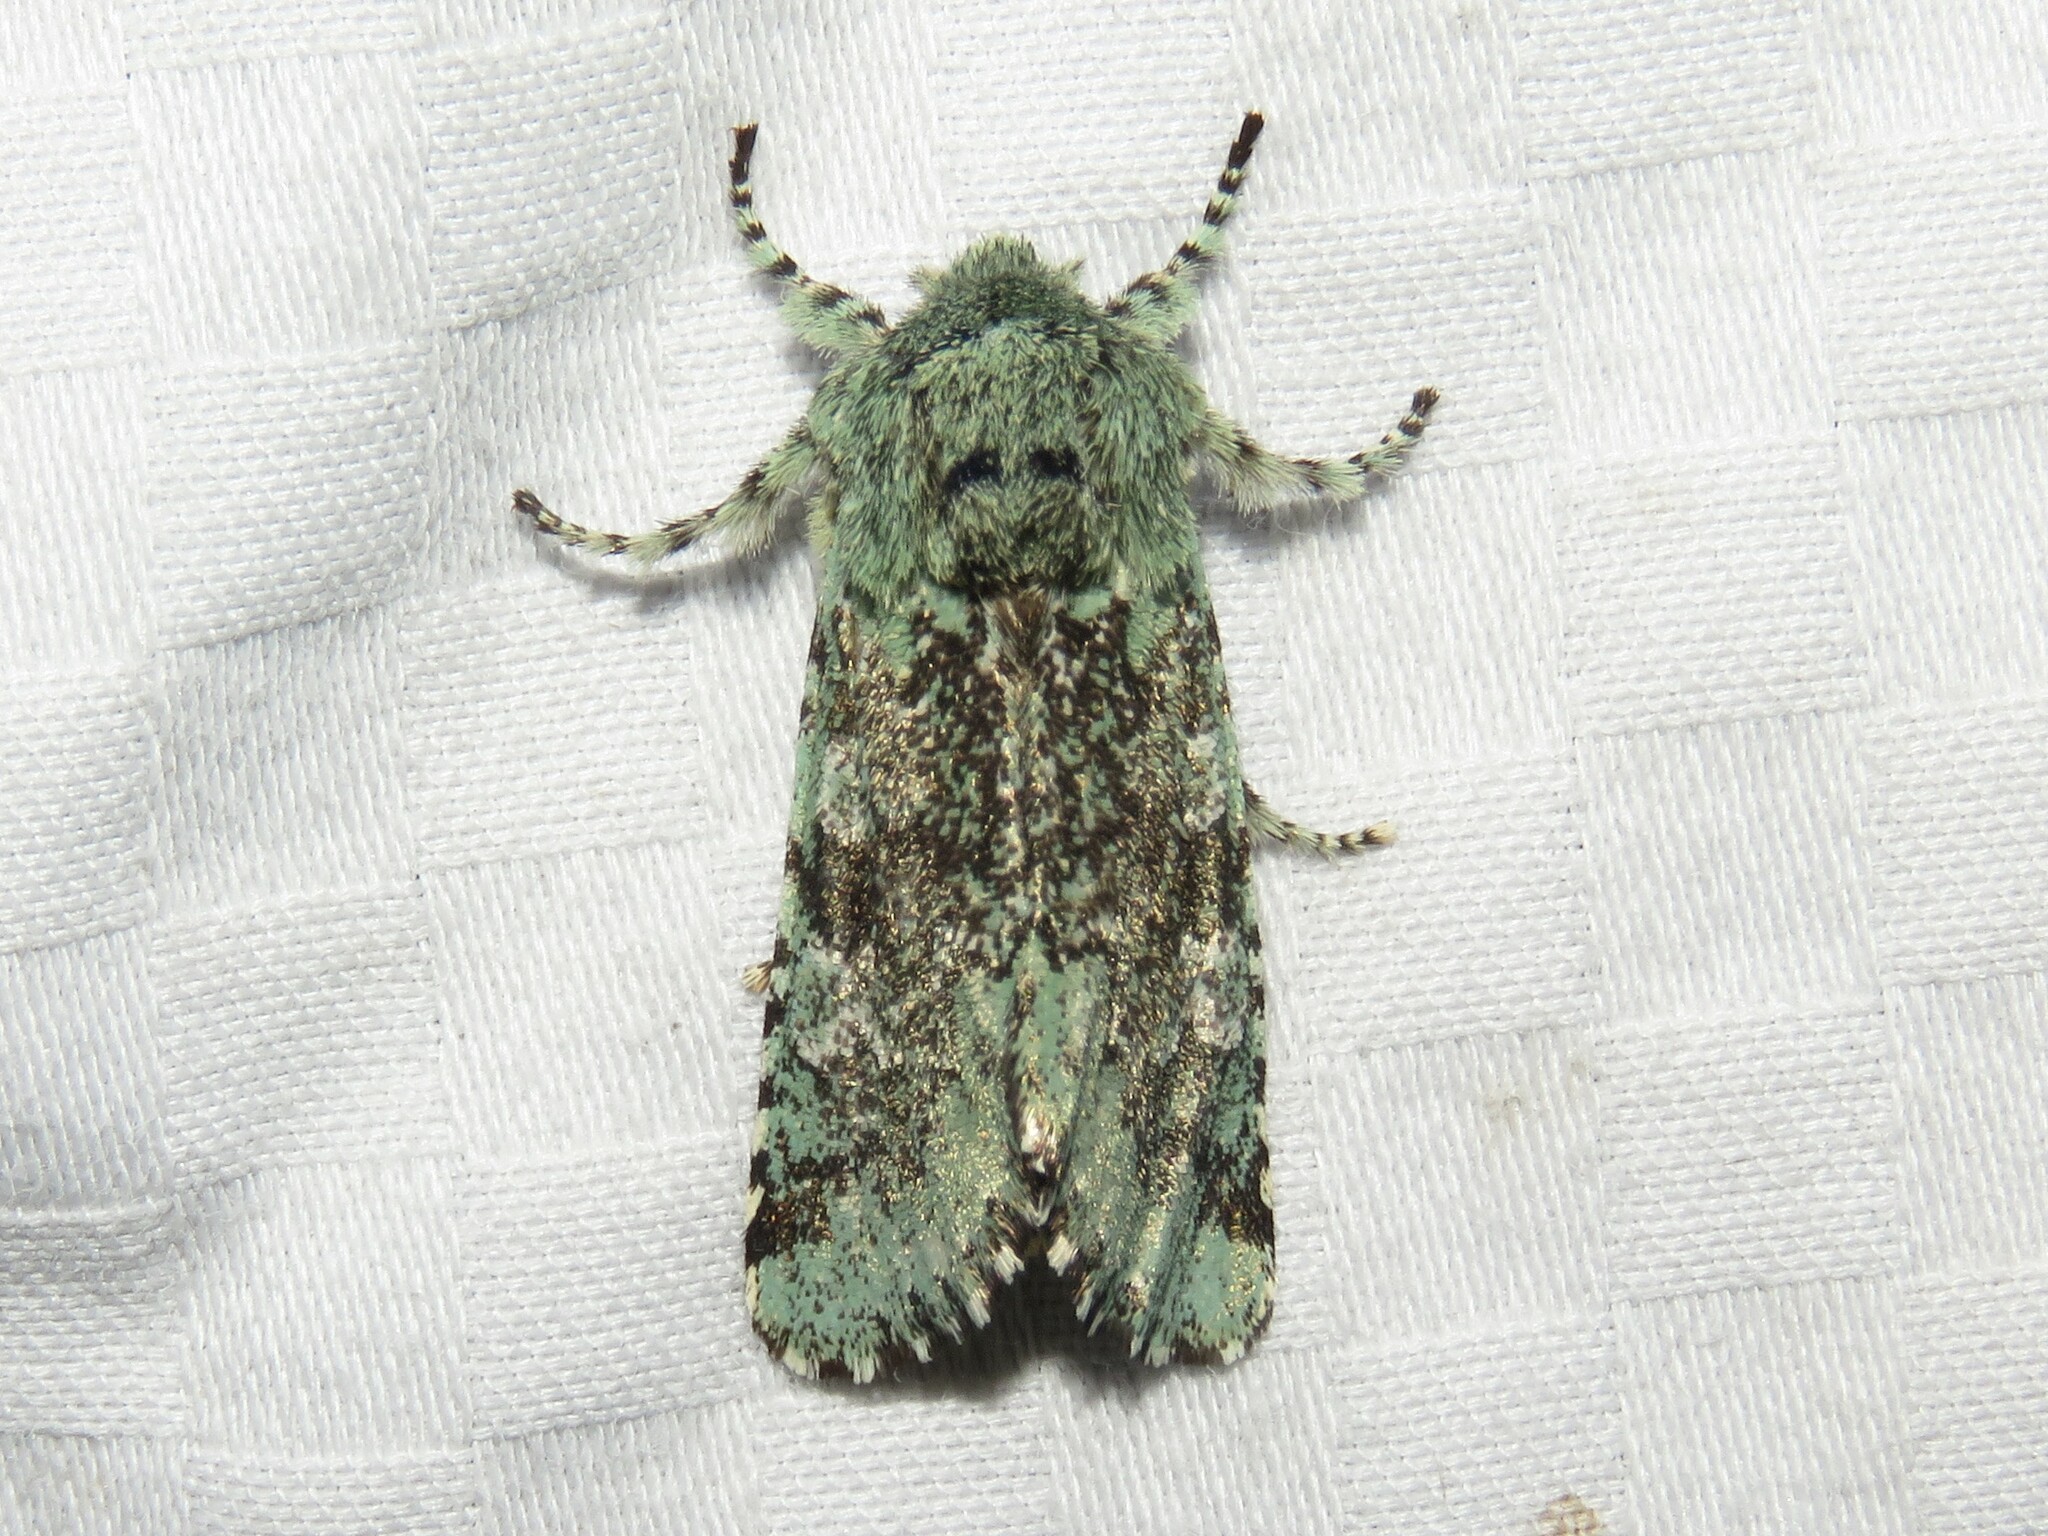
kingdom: Animalia
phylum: Arthropoda
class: Insecta
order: Lepidoptera
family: Noctuidae
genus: Feralia
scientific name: Feralia major
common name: Major sallow
